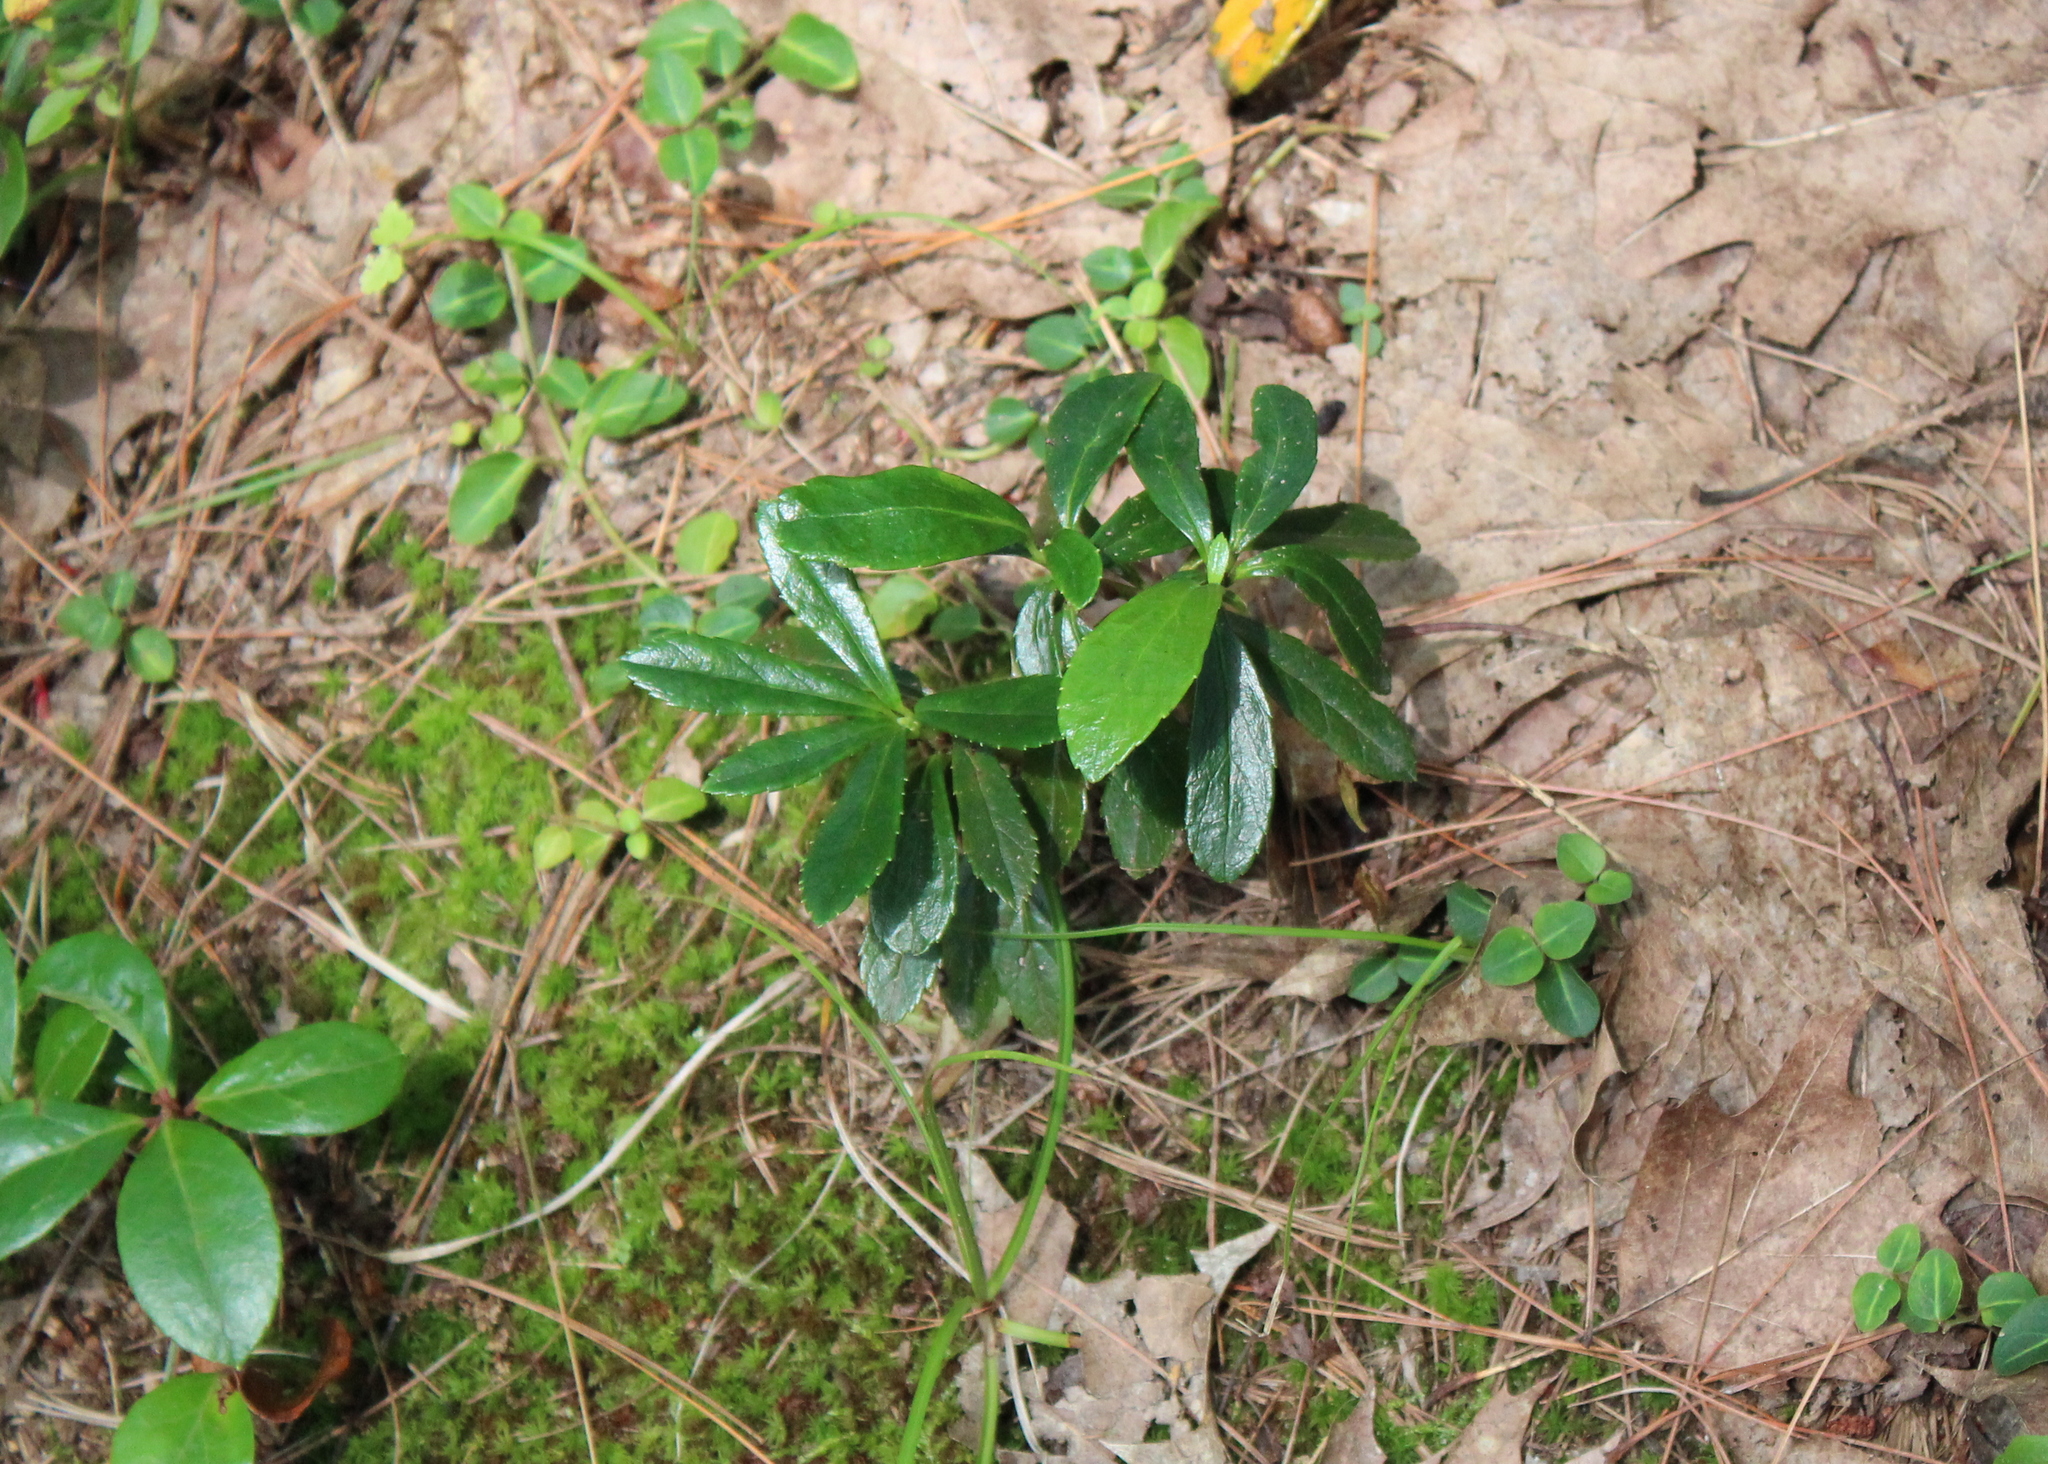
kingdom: Plantae
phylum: Tracheophyta
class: Magnoliopsida
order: Ericales
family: Ericaceae
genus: Chimaphila
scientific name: Chimaphila umbellata
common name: Pipsissewa
